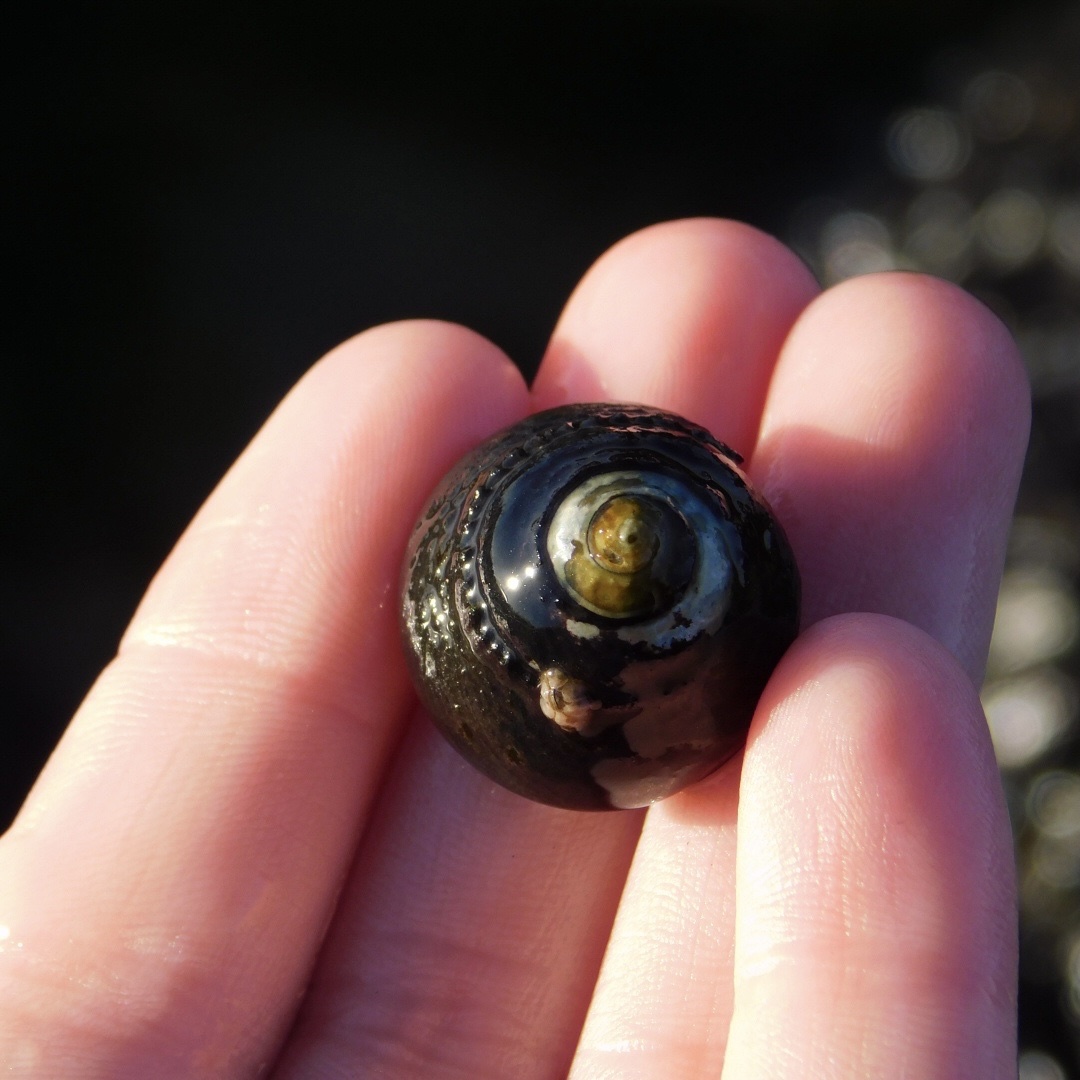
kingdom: Animalia
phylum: Mollusca
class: Gastropoda
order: Trochida
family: Tegulidae
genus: Tegula
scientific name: Tegula funebralis
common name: Black tegula
